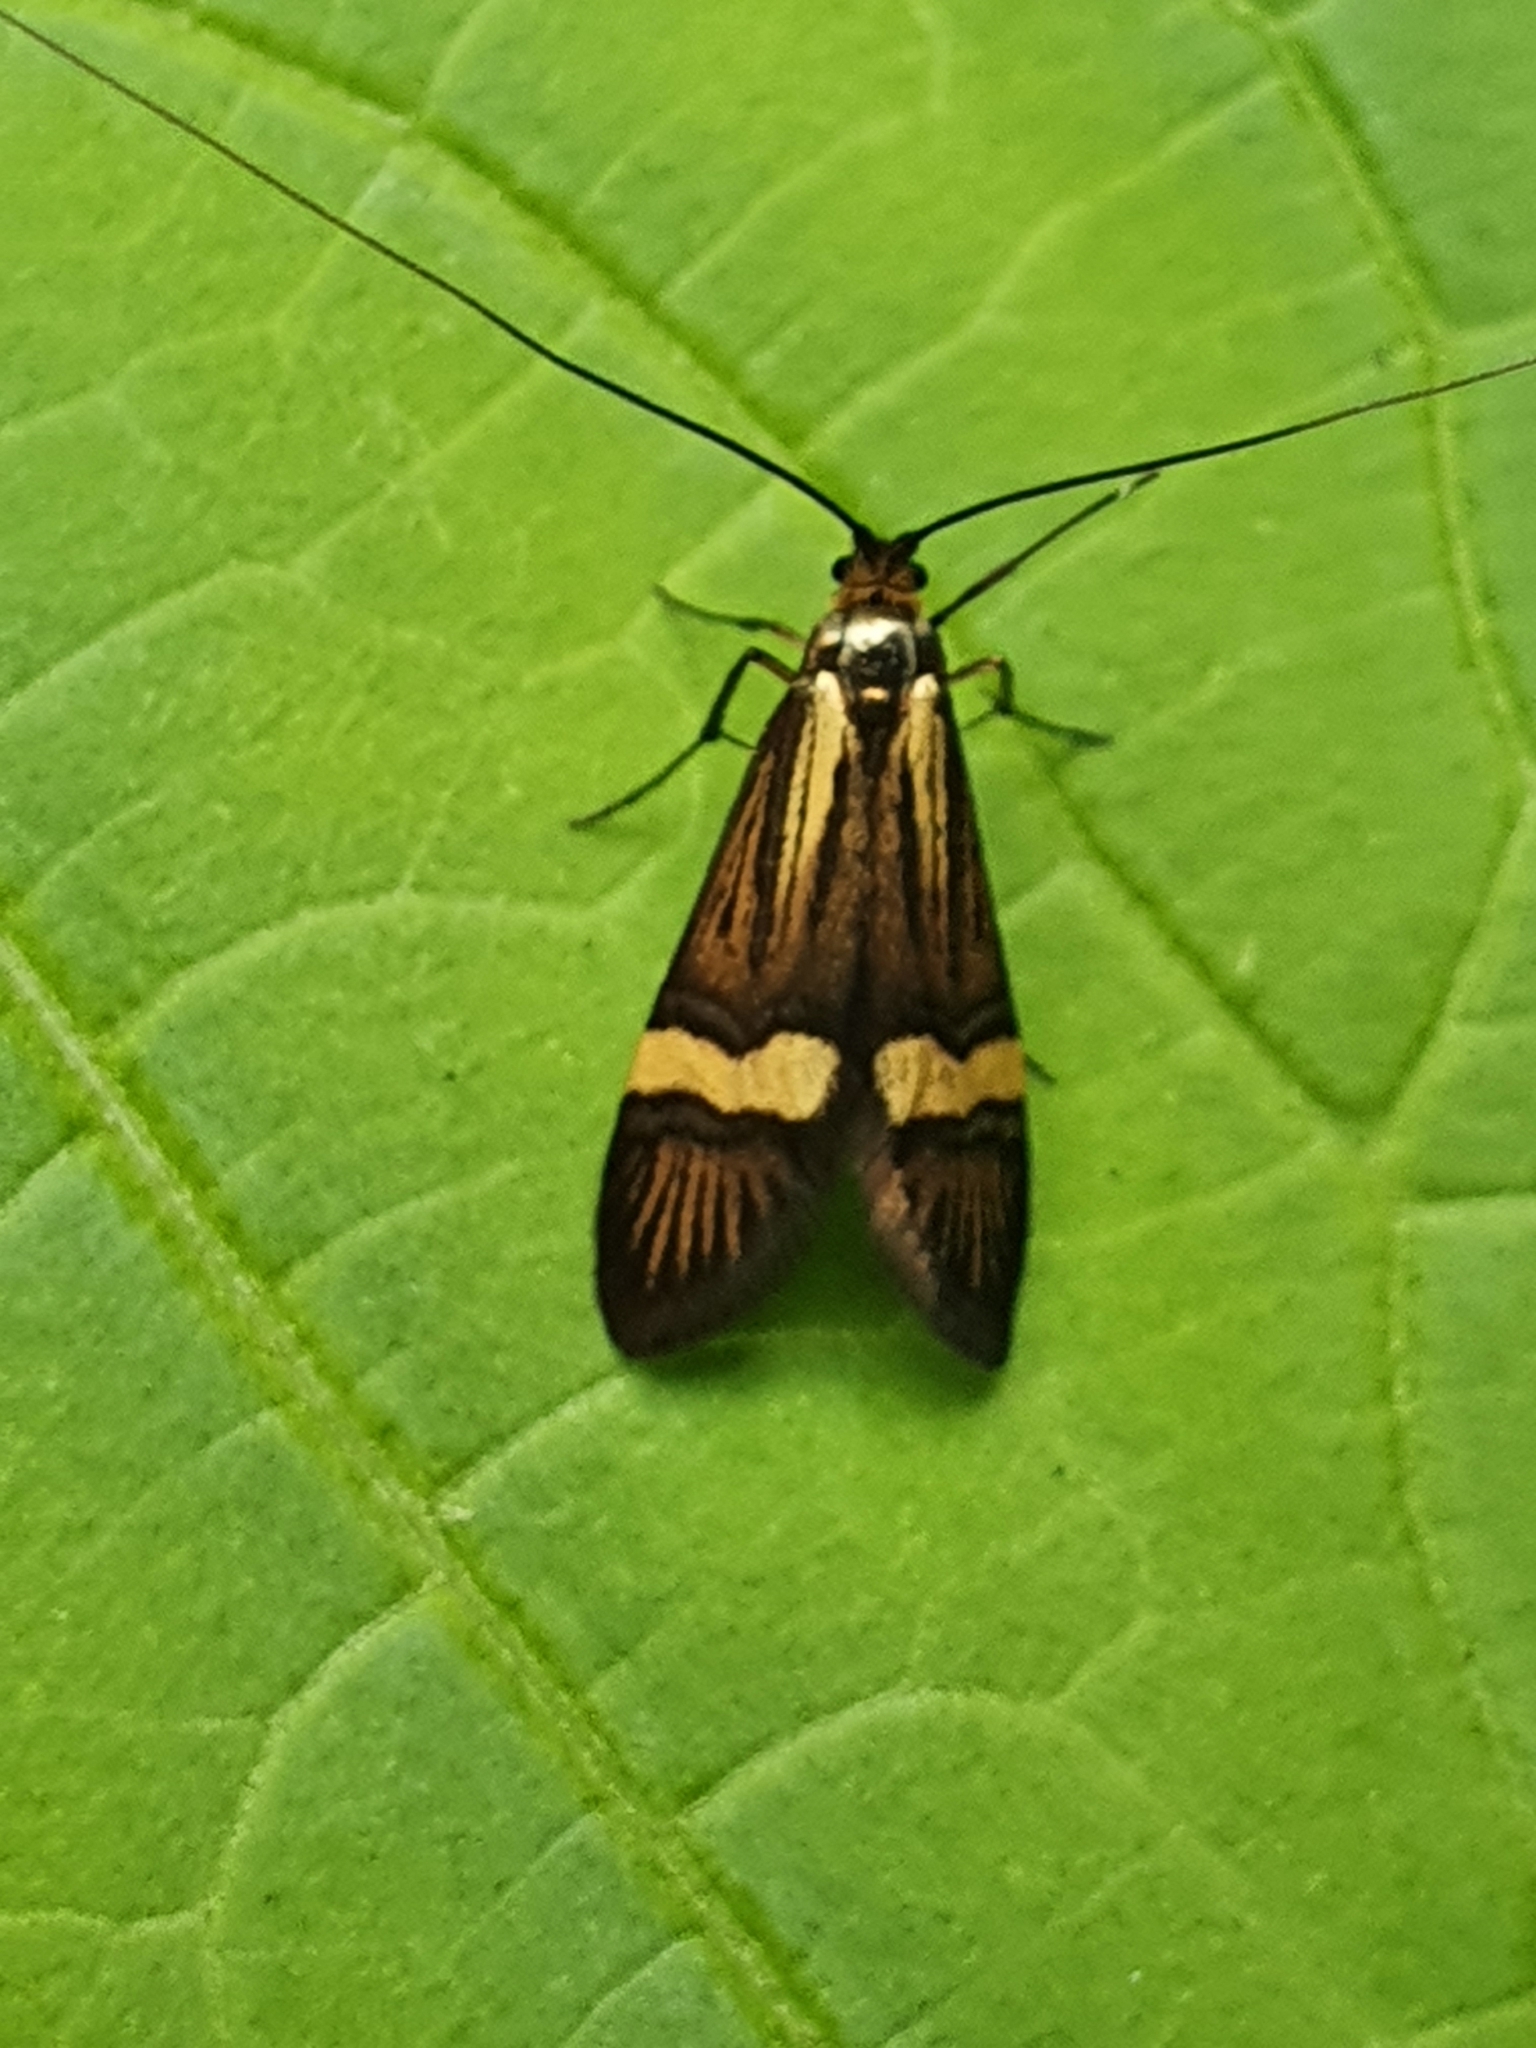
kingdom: Animalia
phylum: Arthropoda
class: Insecta
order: Lepidoptera
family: Adelidae
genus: Nemophora
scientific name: Nemophora degeerella
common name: Yellow-barred long-horn
